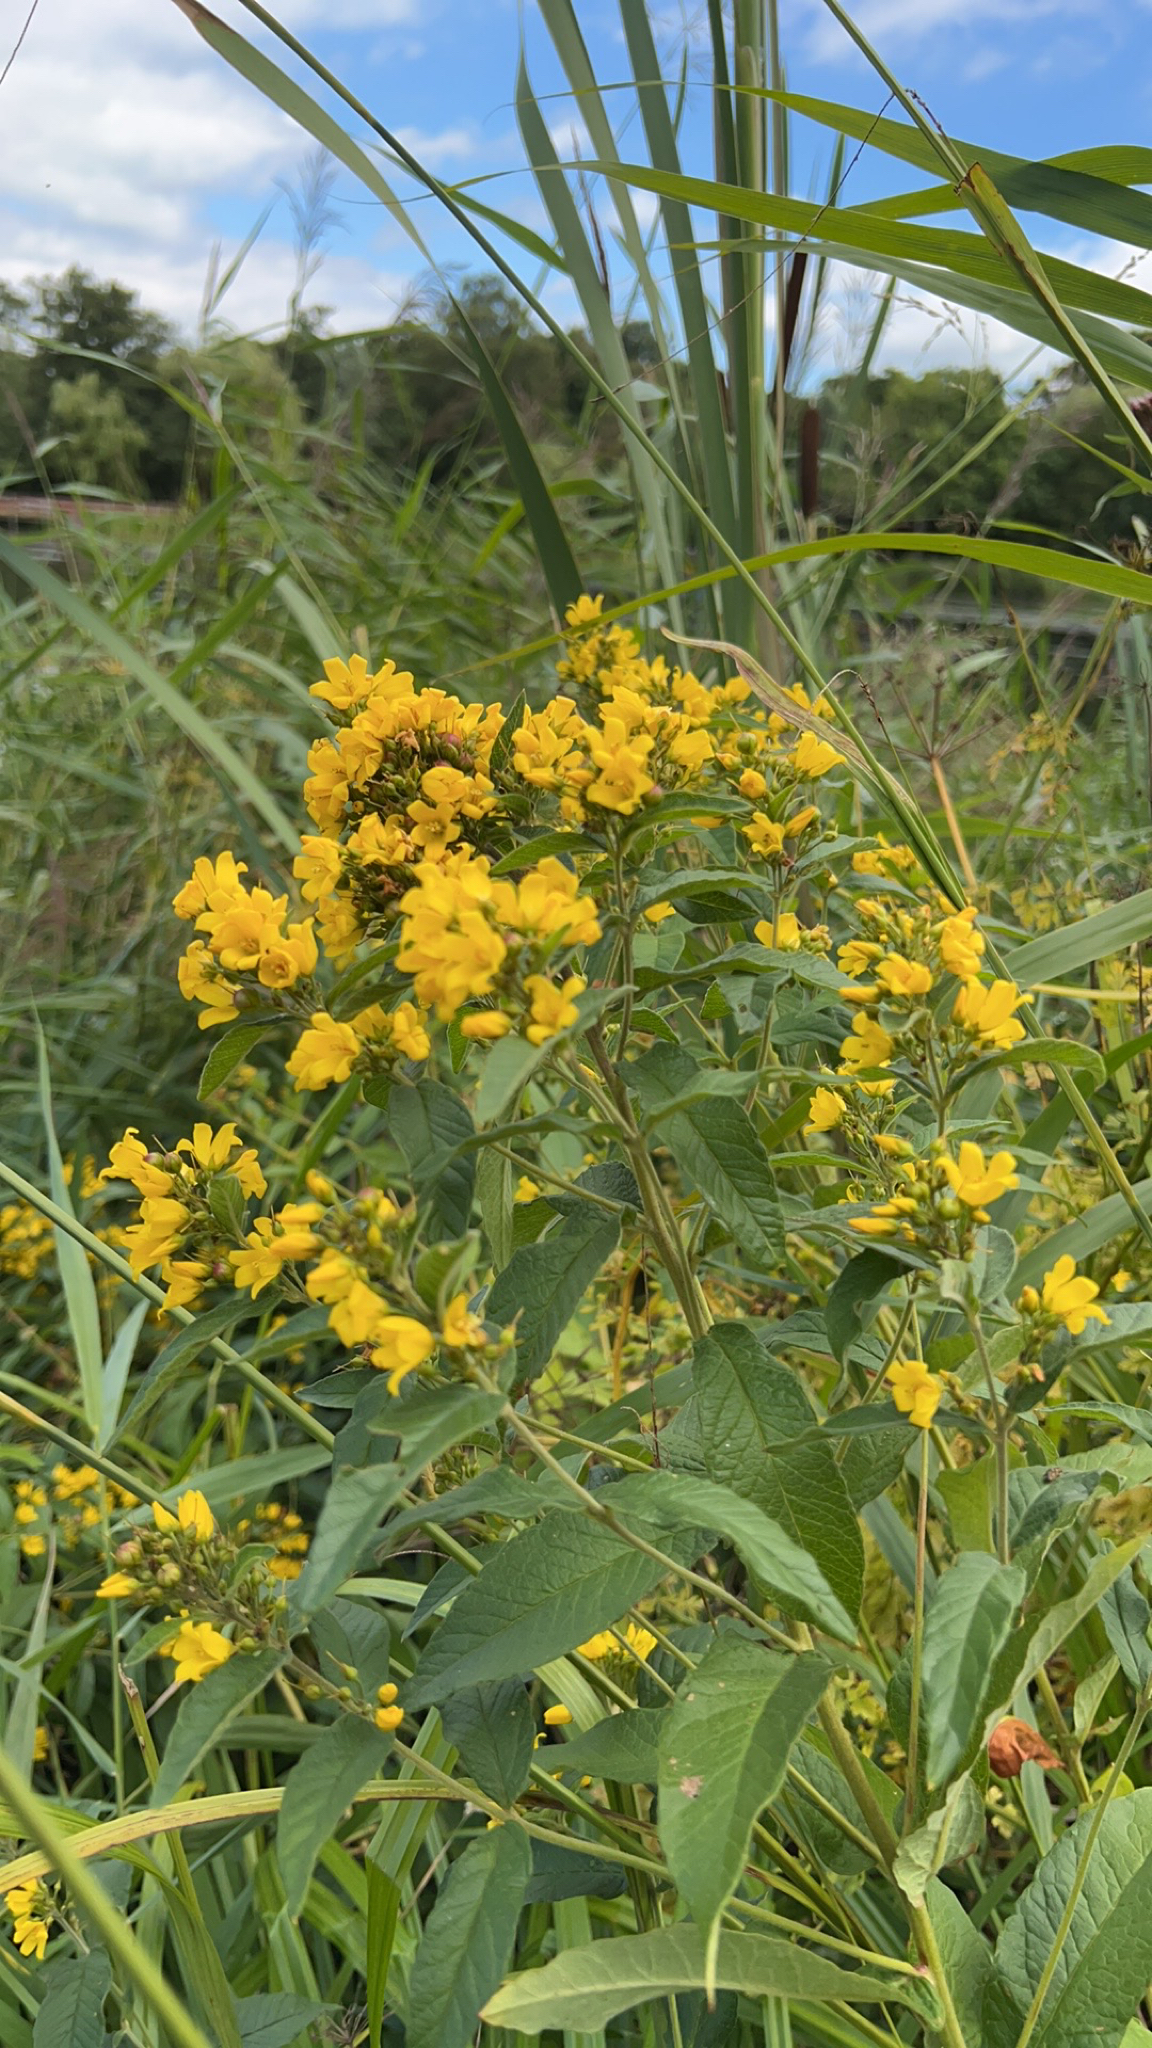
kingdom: Plantae
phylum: Tracheophyta
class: Magnoliopsida
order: Ericales
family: Primulaceae
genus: Lysimachia
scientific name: Lysimachia vulgaris
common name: Yellow loosestrife
